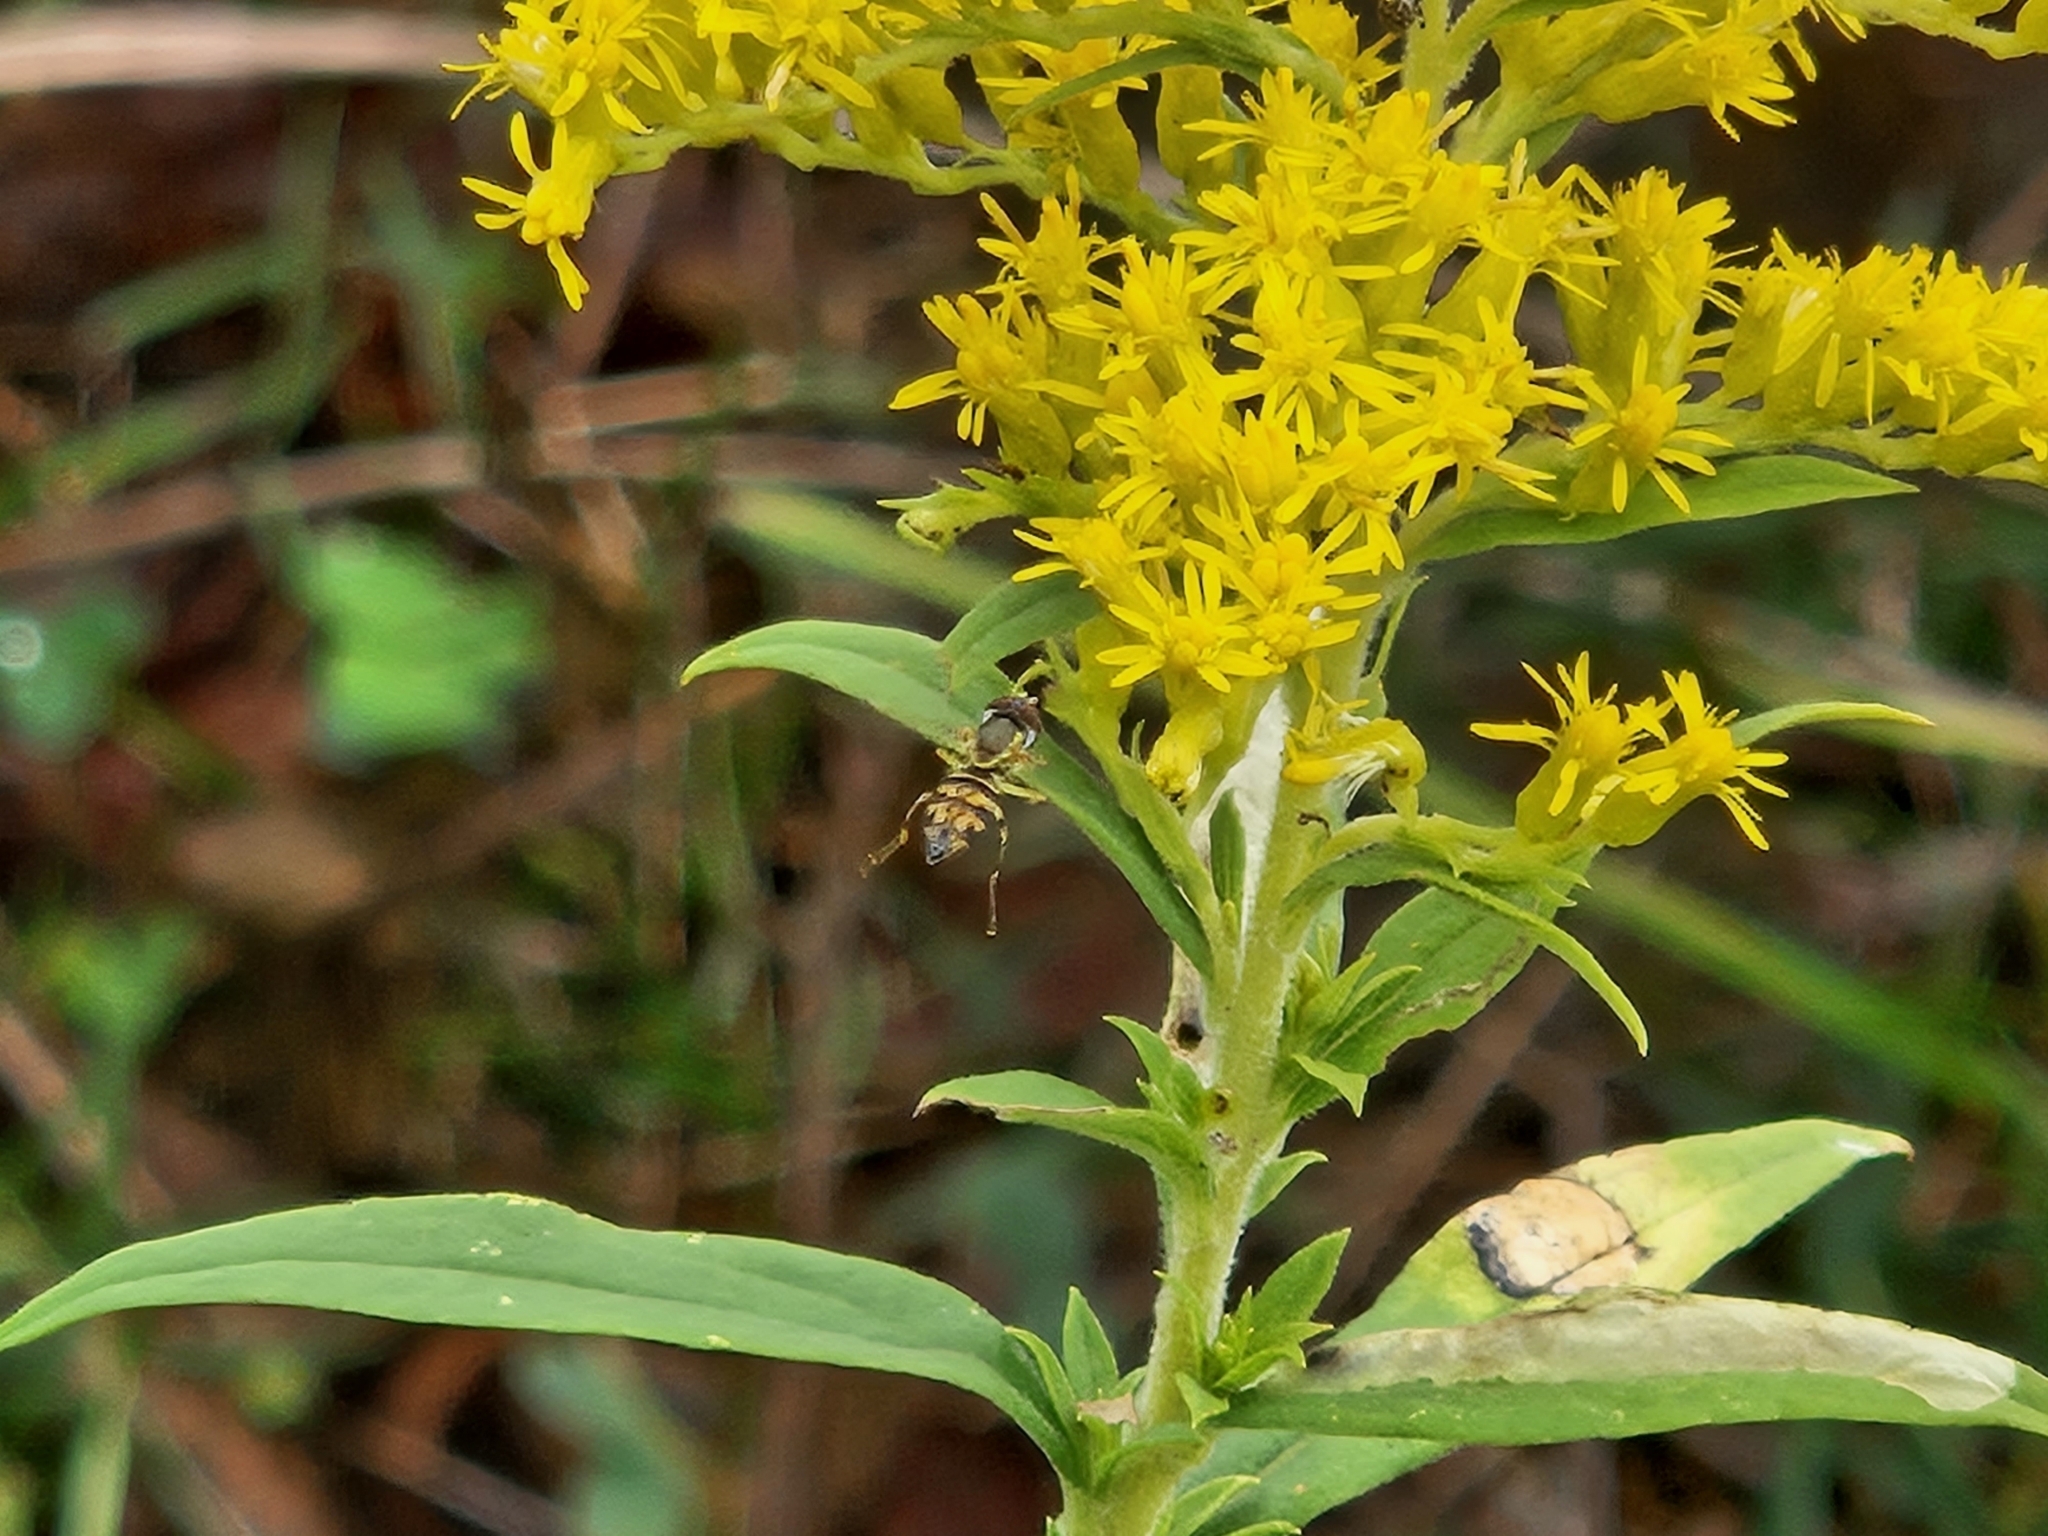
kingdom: Animalia
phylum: Arthropoda
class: Insecta
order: Diptera
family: Syrphidae
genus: Toxomerus
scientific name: Toxomerus geminatus
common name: Eastern calligrapher
